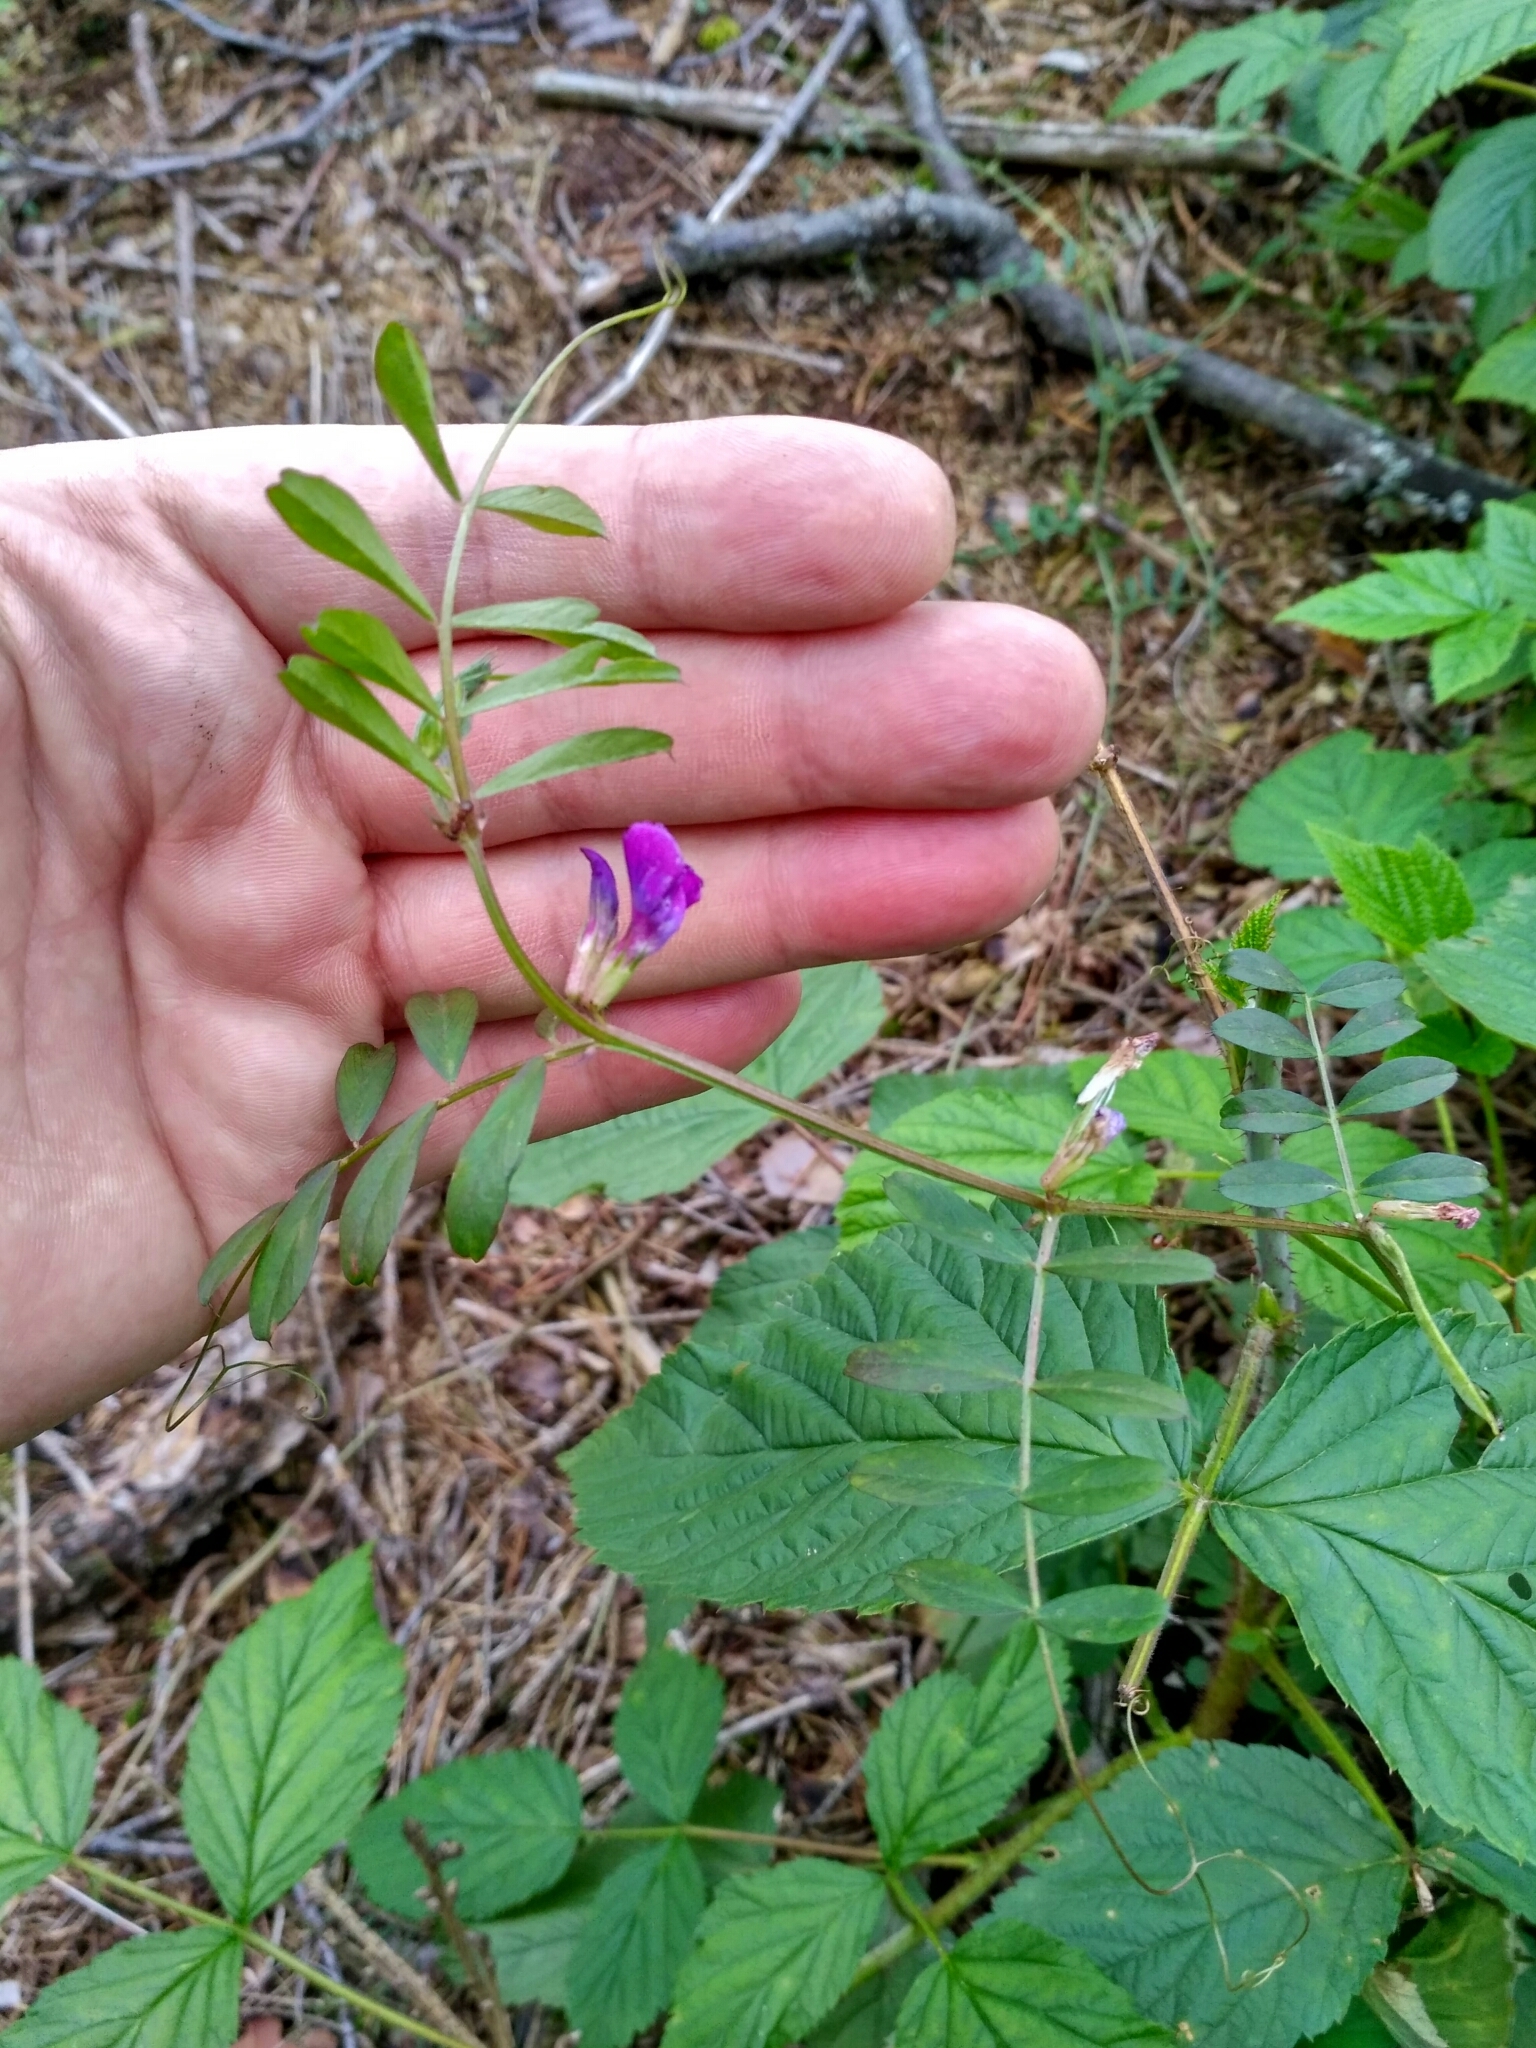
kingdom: Plantae
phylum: Tracheophyta
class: Magnoliopsida
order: Fabales
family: Fabaceae
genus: Vicia
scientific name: Vicia sativa
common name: Garden vetch
